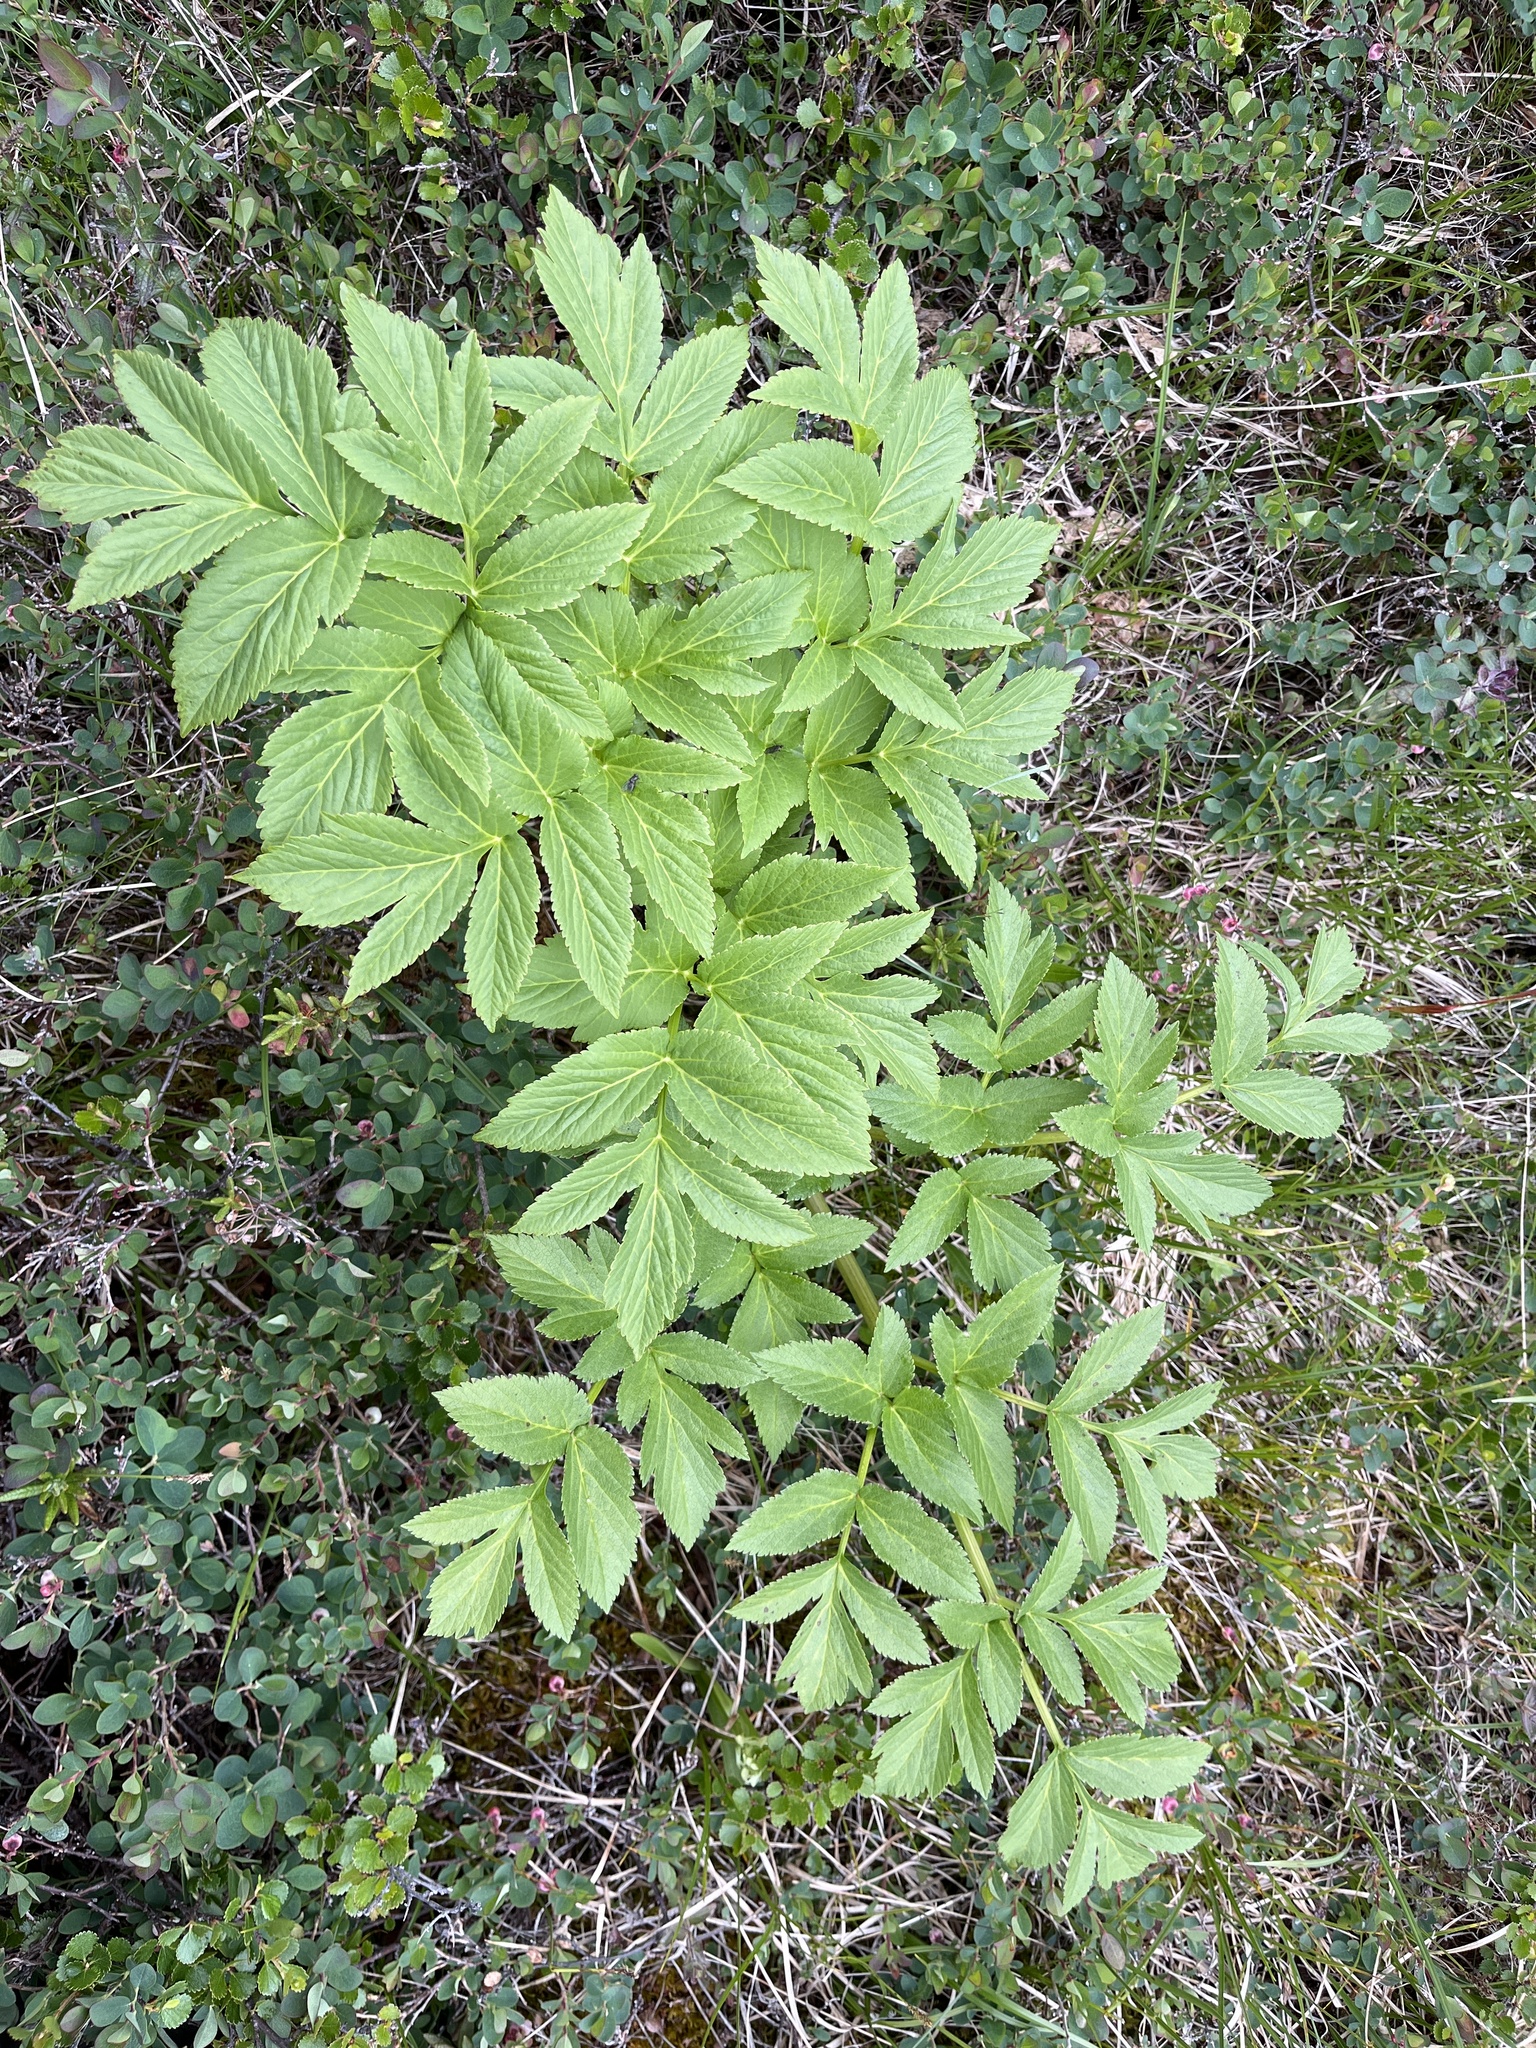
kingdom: Plantae
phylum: Tracheophyta
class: Magnoliopsida
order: Apiales
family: Apiaceae
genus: Angelica
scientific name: Angelica archangelica
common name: Garden angelica
